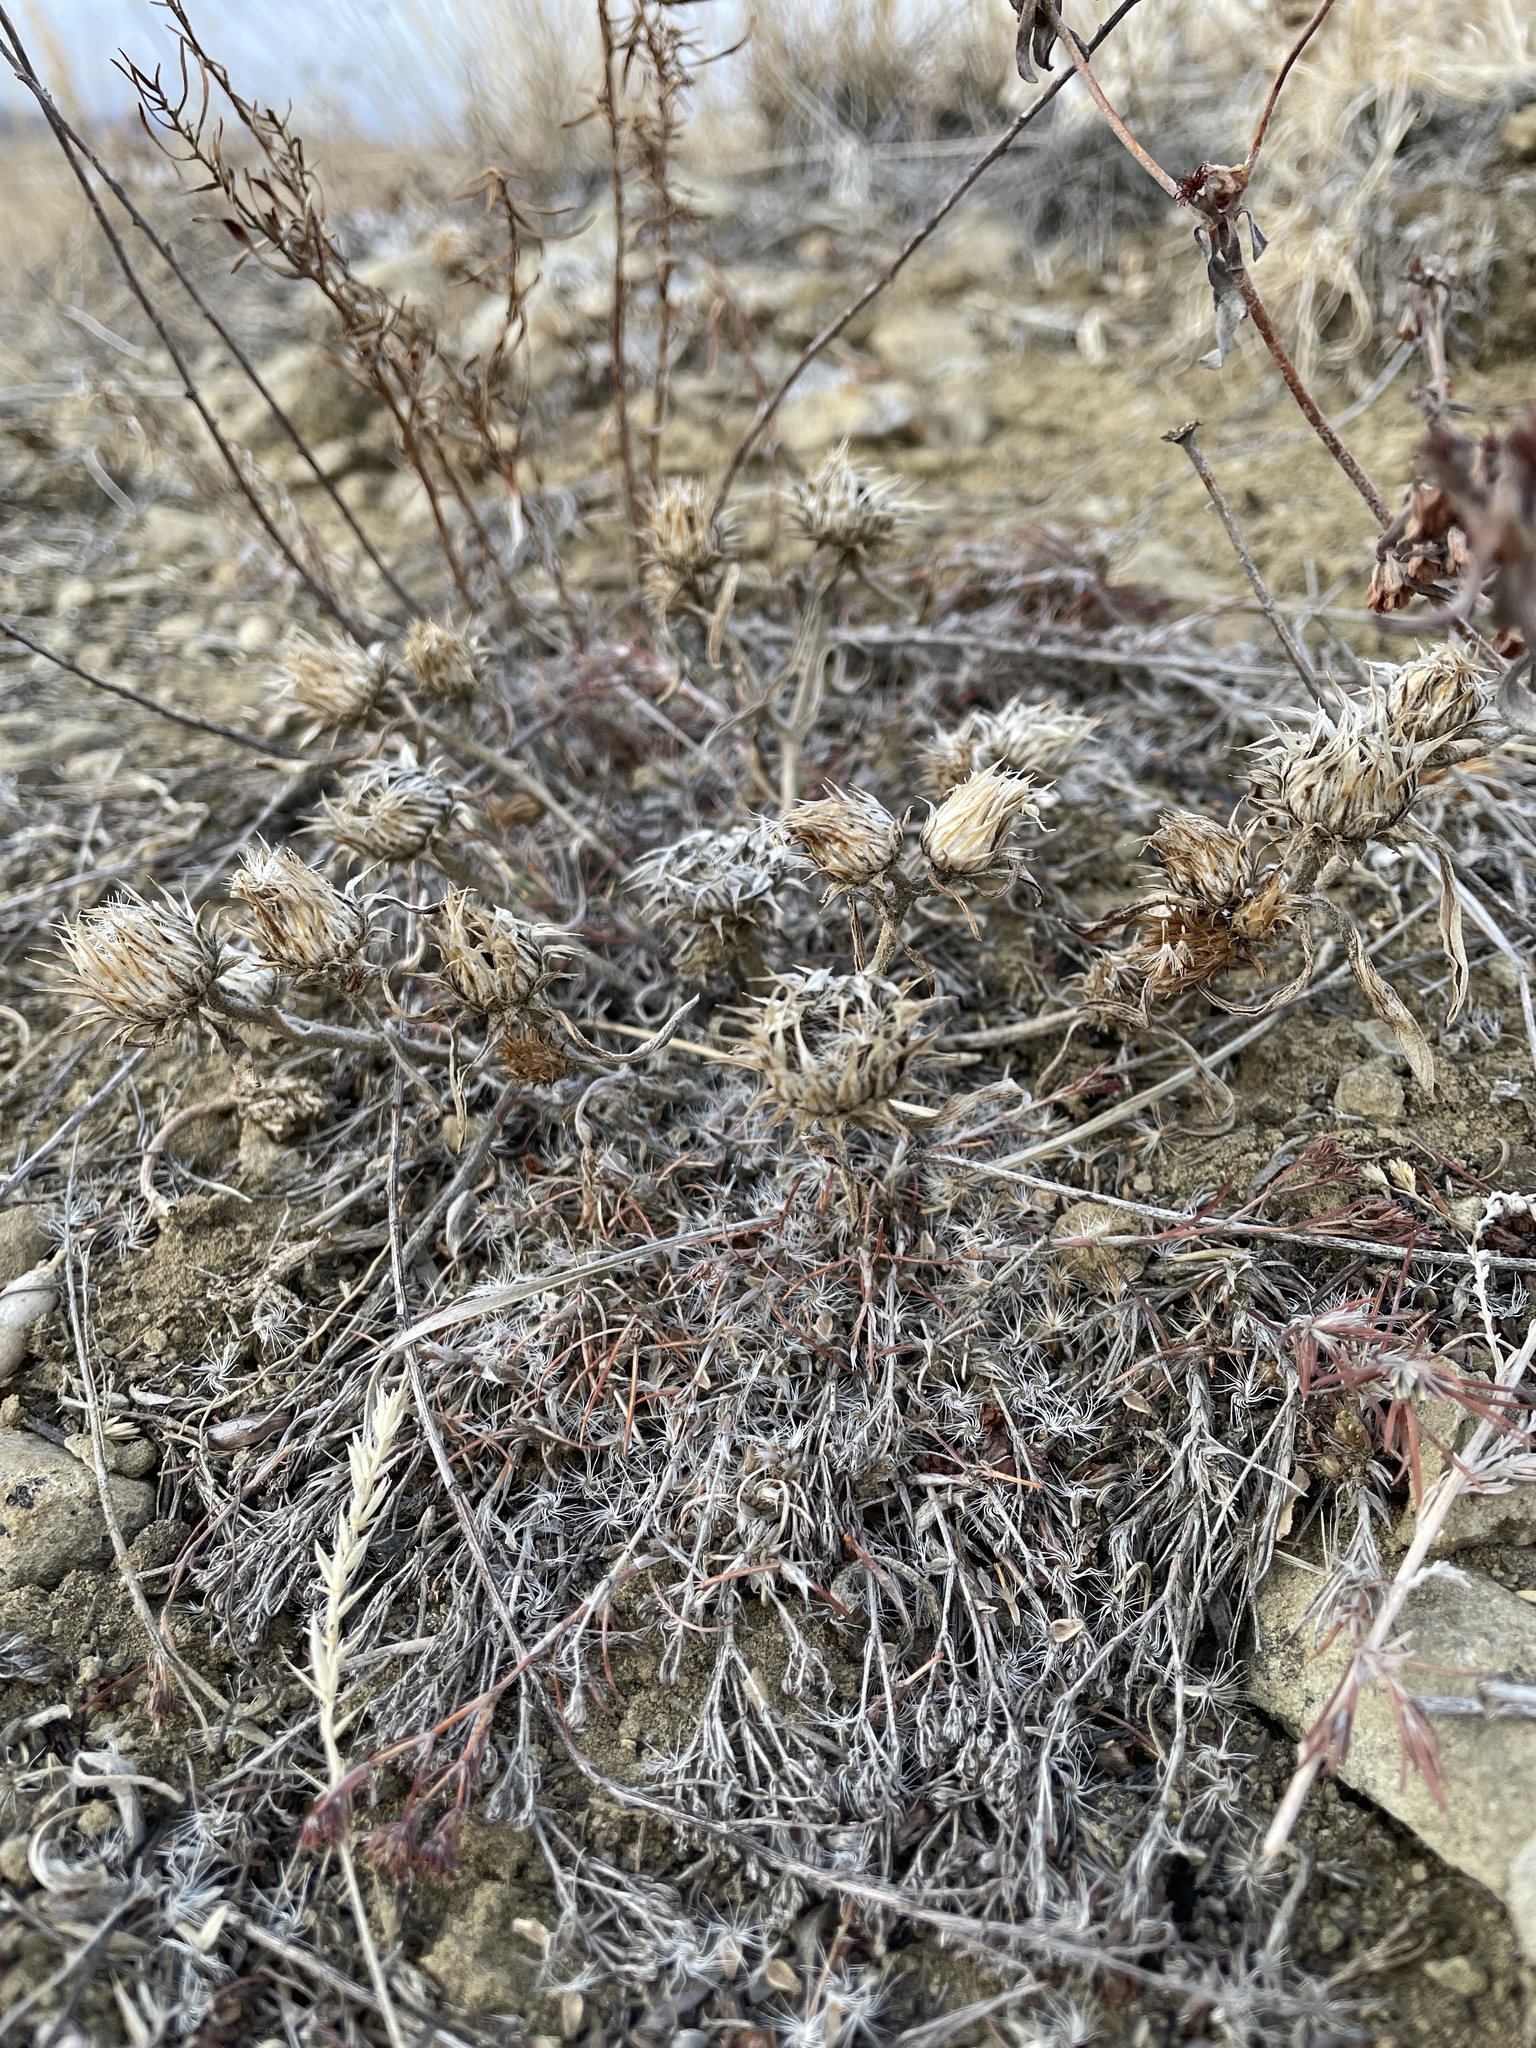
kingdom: Plantae
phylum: Tracheophyta
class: Magnoliopsida
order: Asterales
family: Asteraceae
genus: Townsendia
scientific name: Townsendia grandiflora
